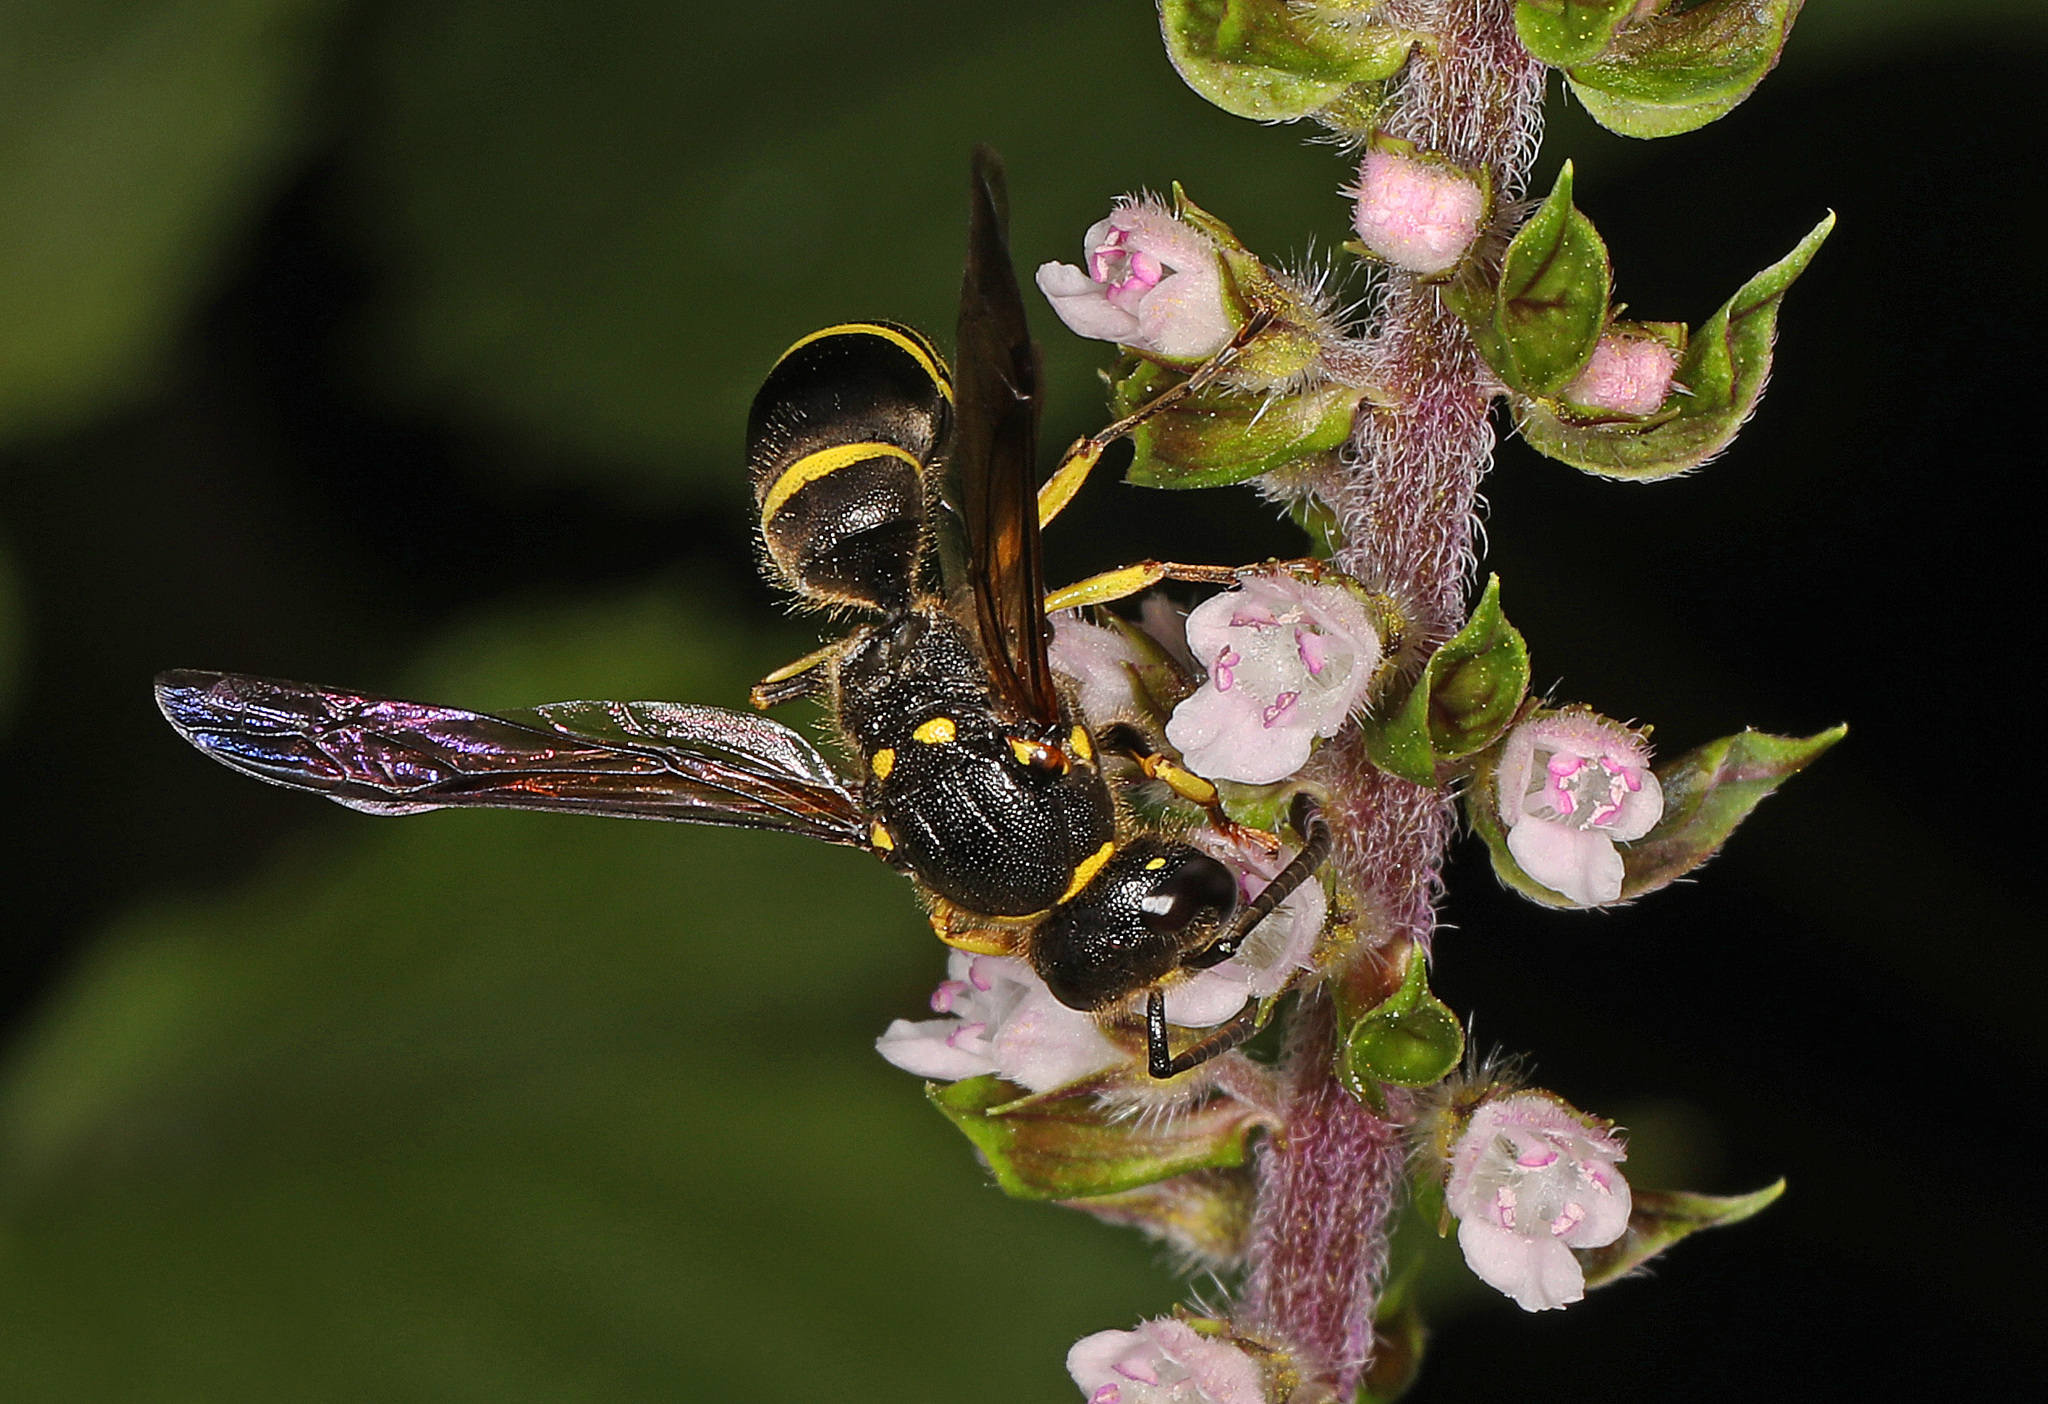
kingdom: Animalia
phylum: Arthropoda
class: Insecta
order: Hymenoptera
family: Vespidae
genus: Ancistrocerus
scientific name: Ancistrocerus
